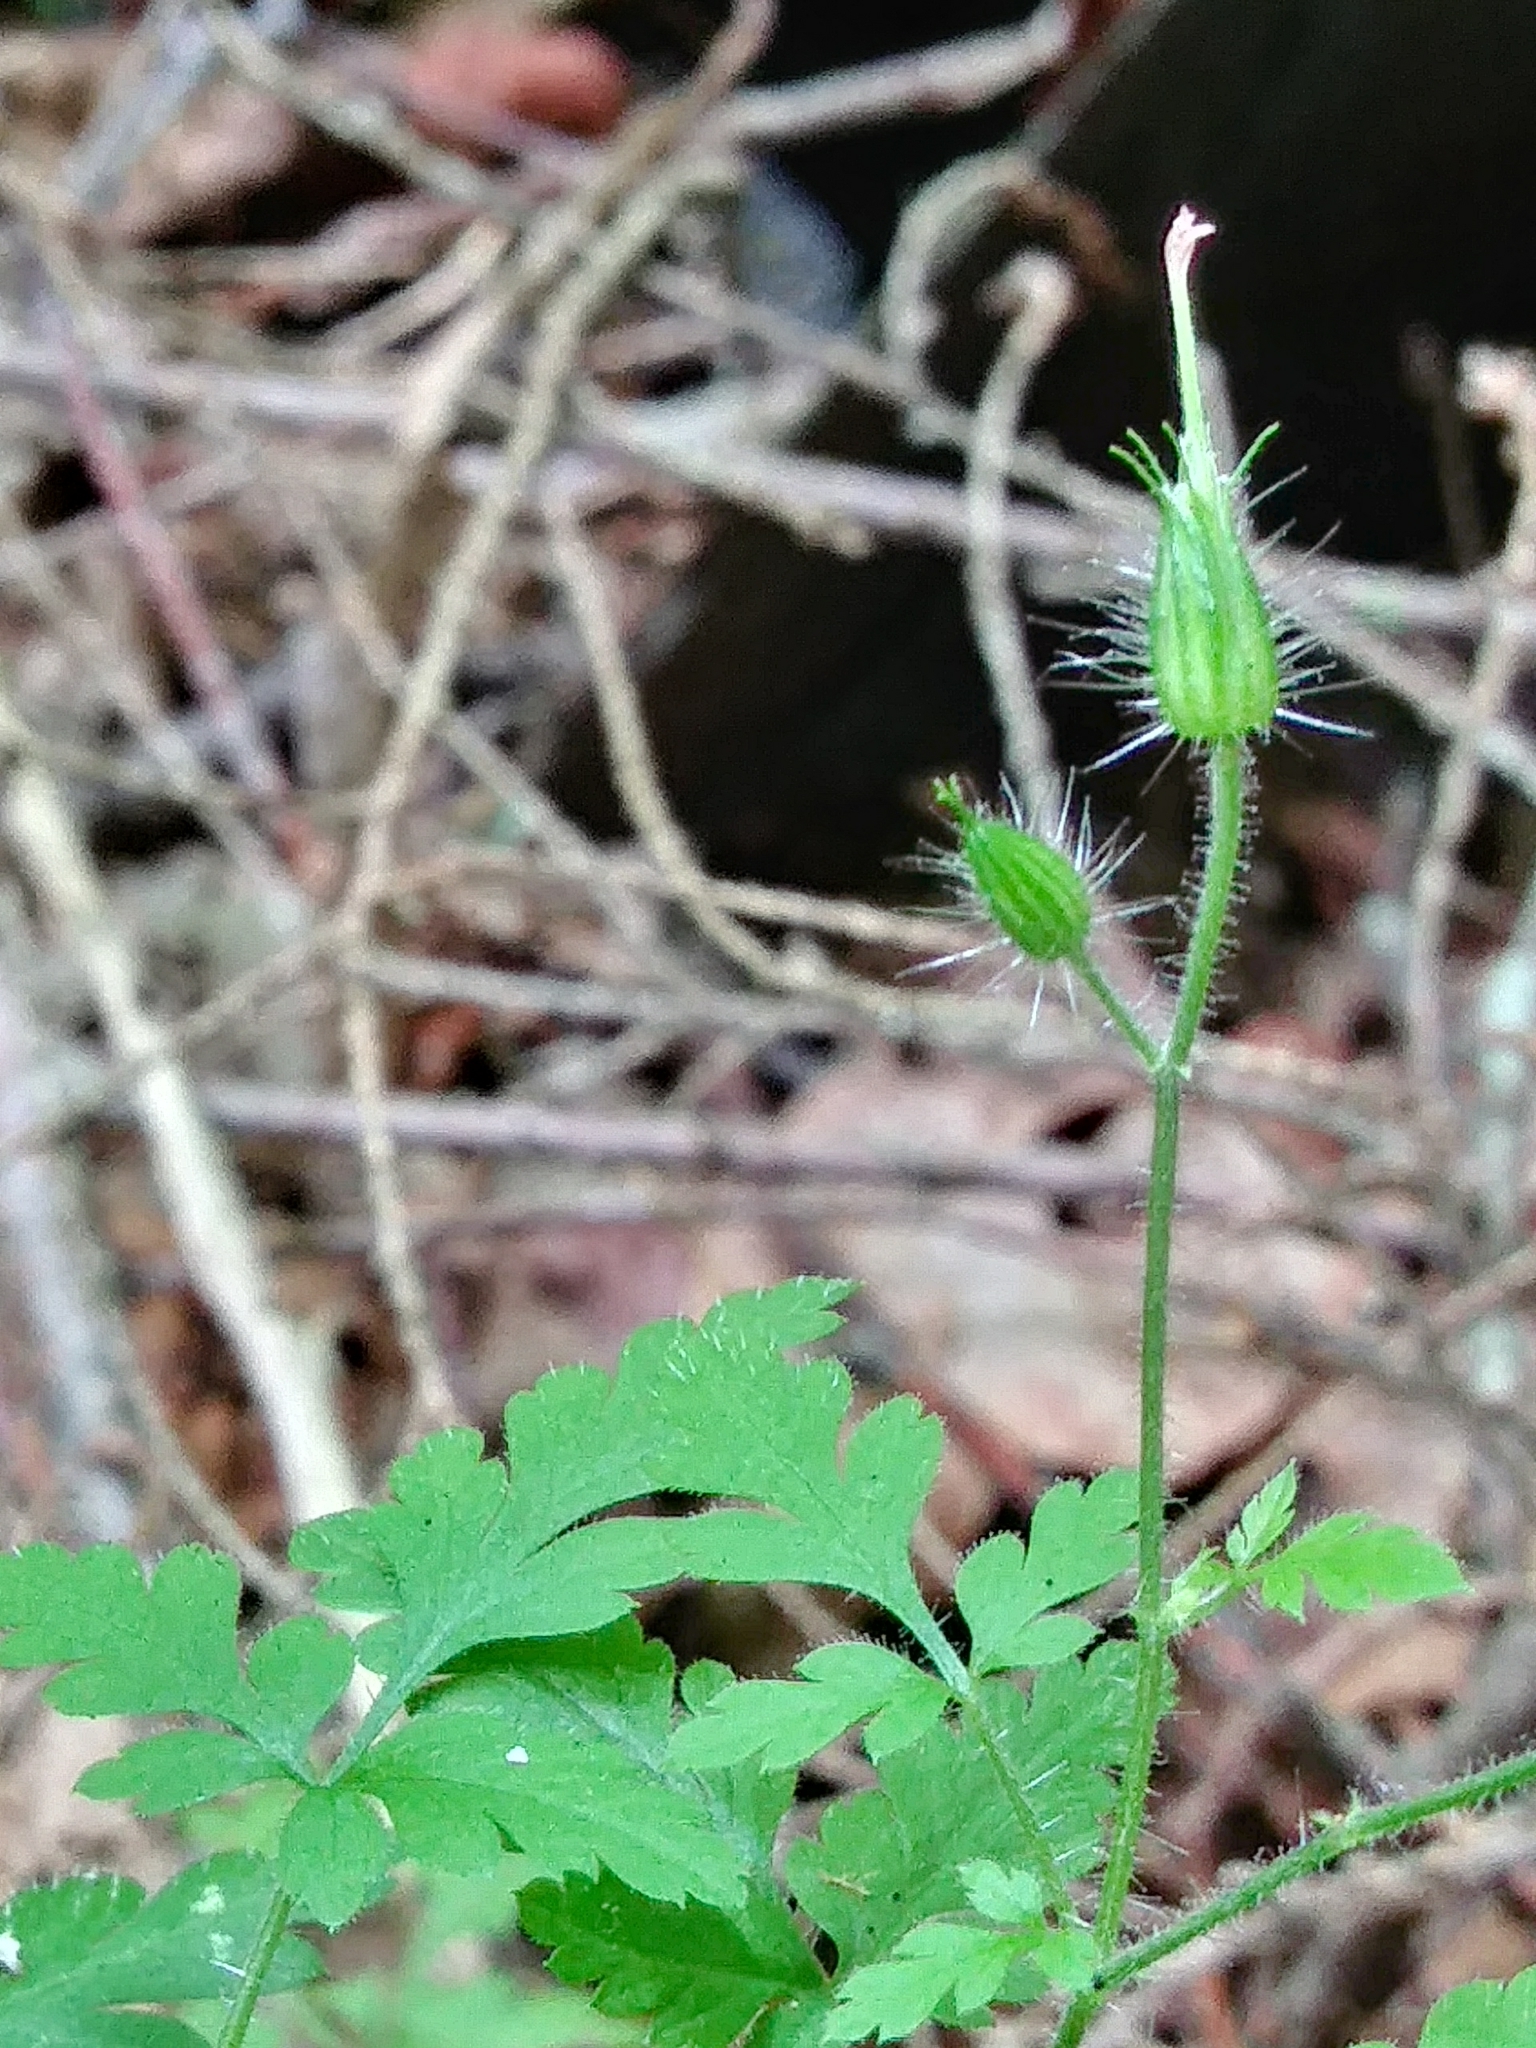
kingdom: Plantae
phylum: Tracheophyta
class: Magnoliopsida
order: Geraniales
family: Geraniaceae
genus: Geranium
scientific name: Geranium robertianum
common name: Herb-robert
